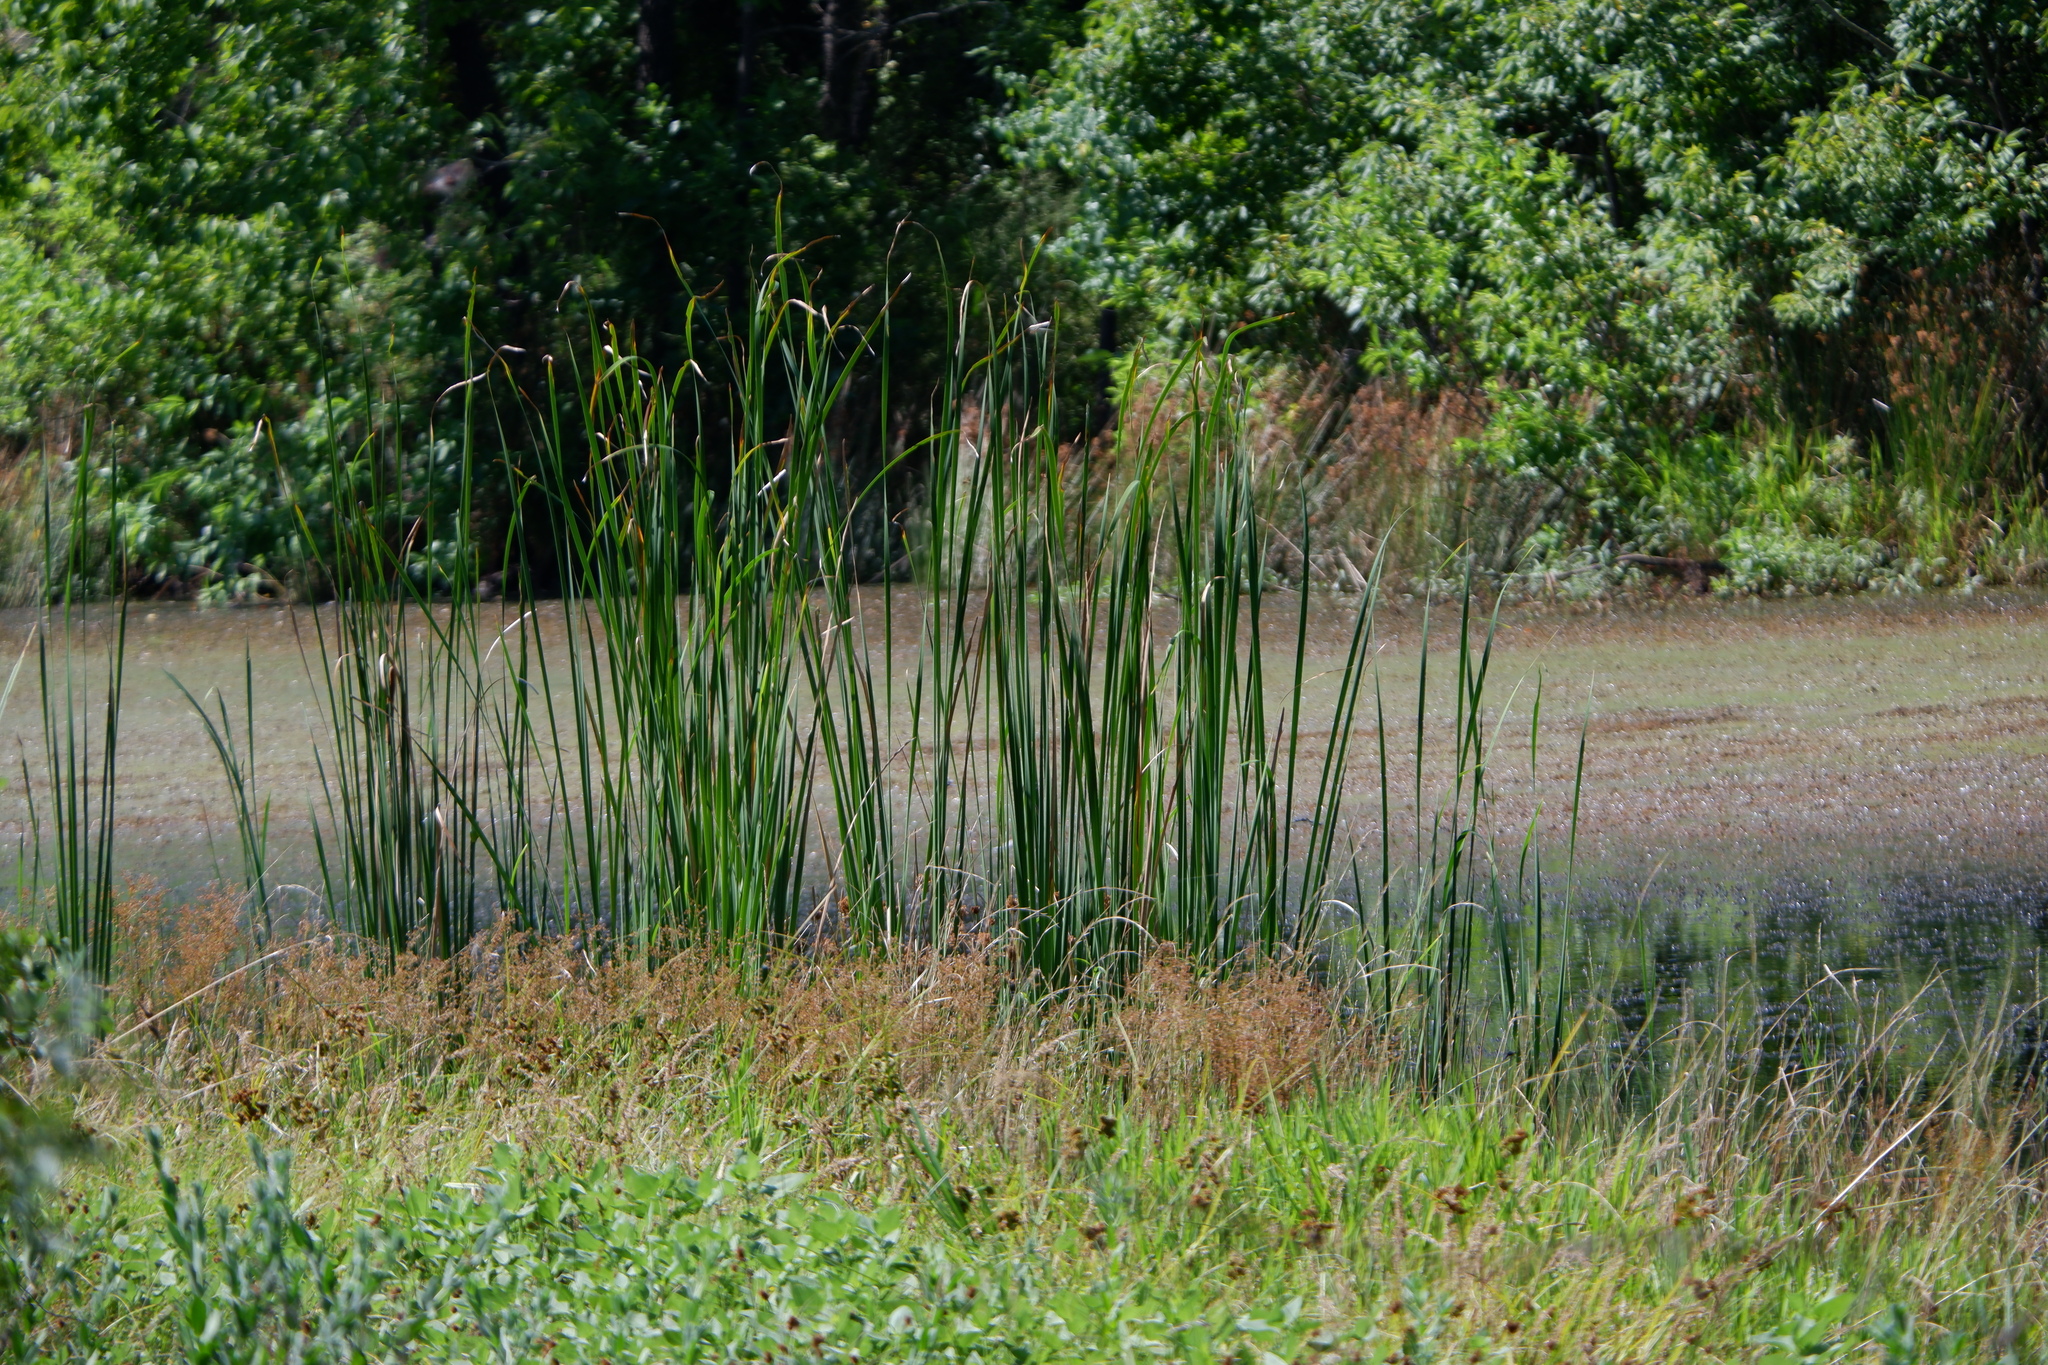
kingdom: Plantae
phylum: Tracheophyta
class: Liliopsida
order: Poales
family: Typhaceae
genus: Typha
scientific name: Typha
